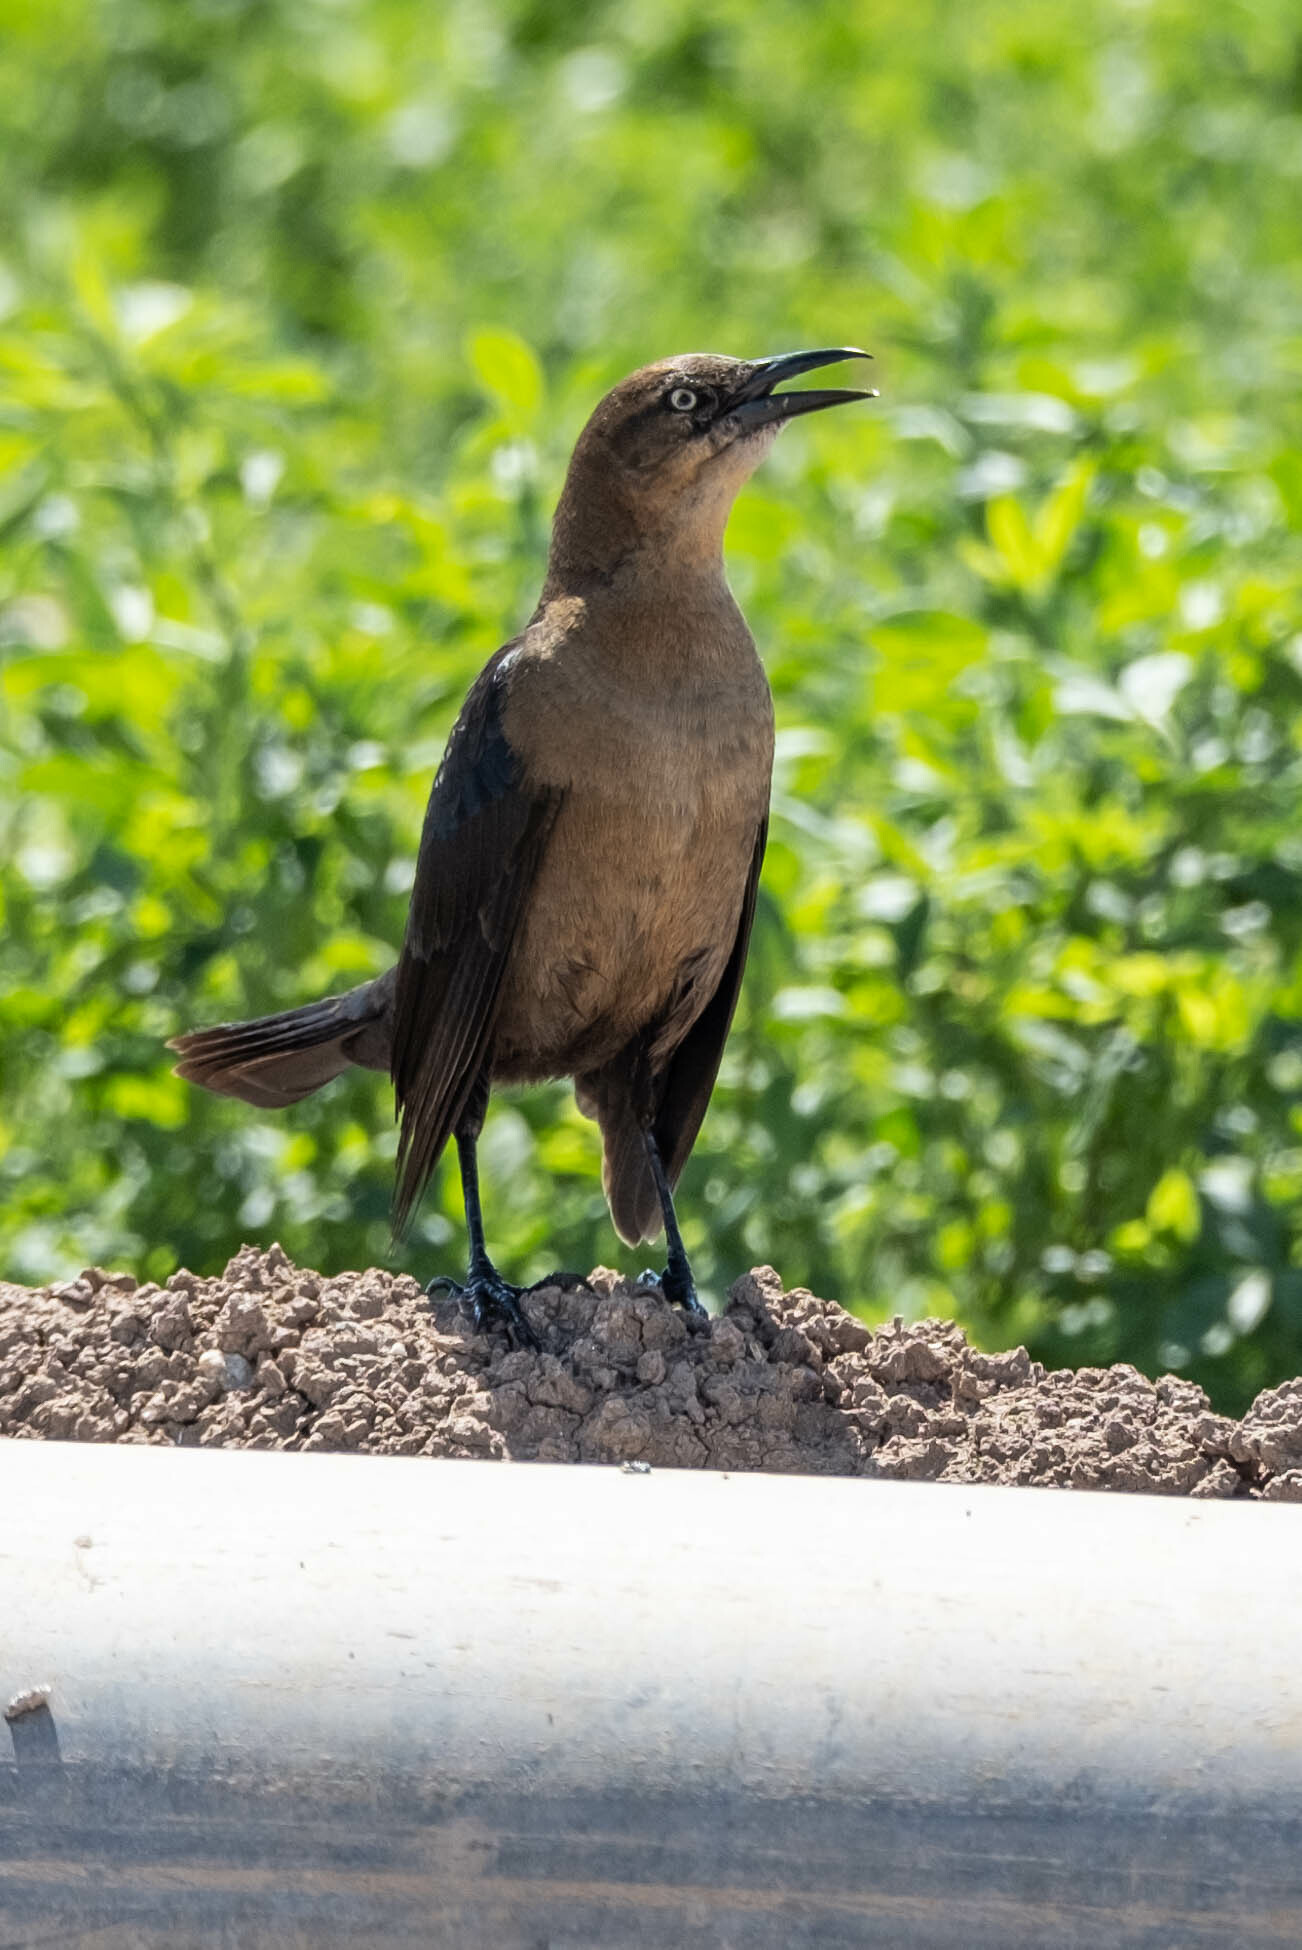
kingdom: Animalia
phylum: Chordata
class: Aves
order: Passeriformes
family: Icteridae
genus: Quiscalus
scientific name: Quiscalus mexicanus
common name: Great-tailed grackle
